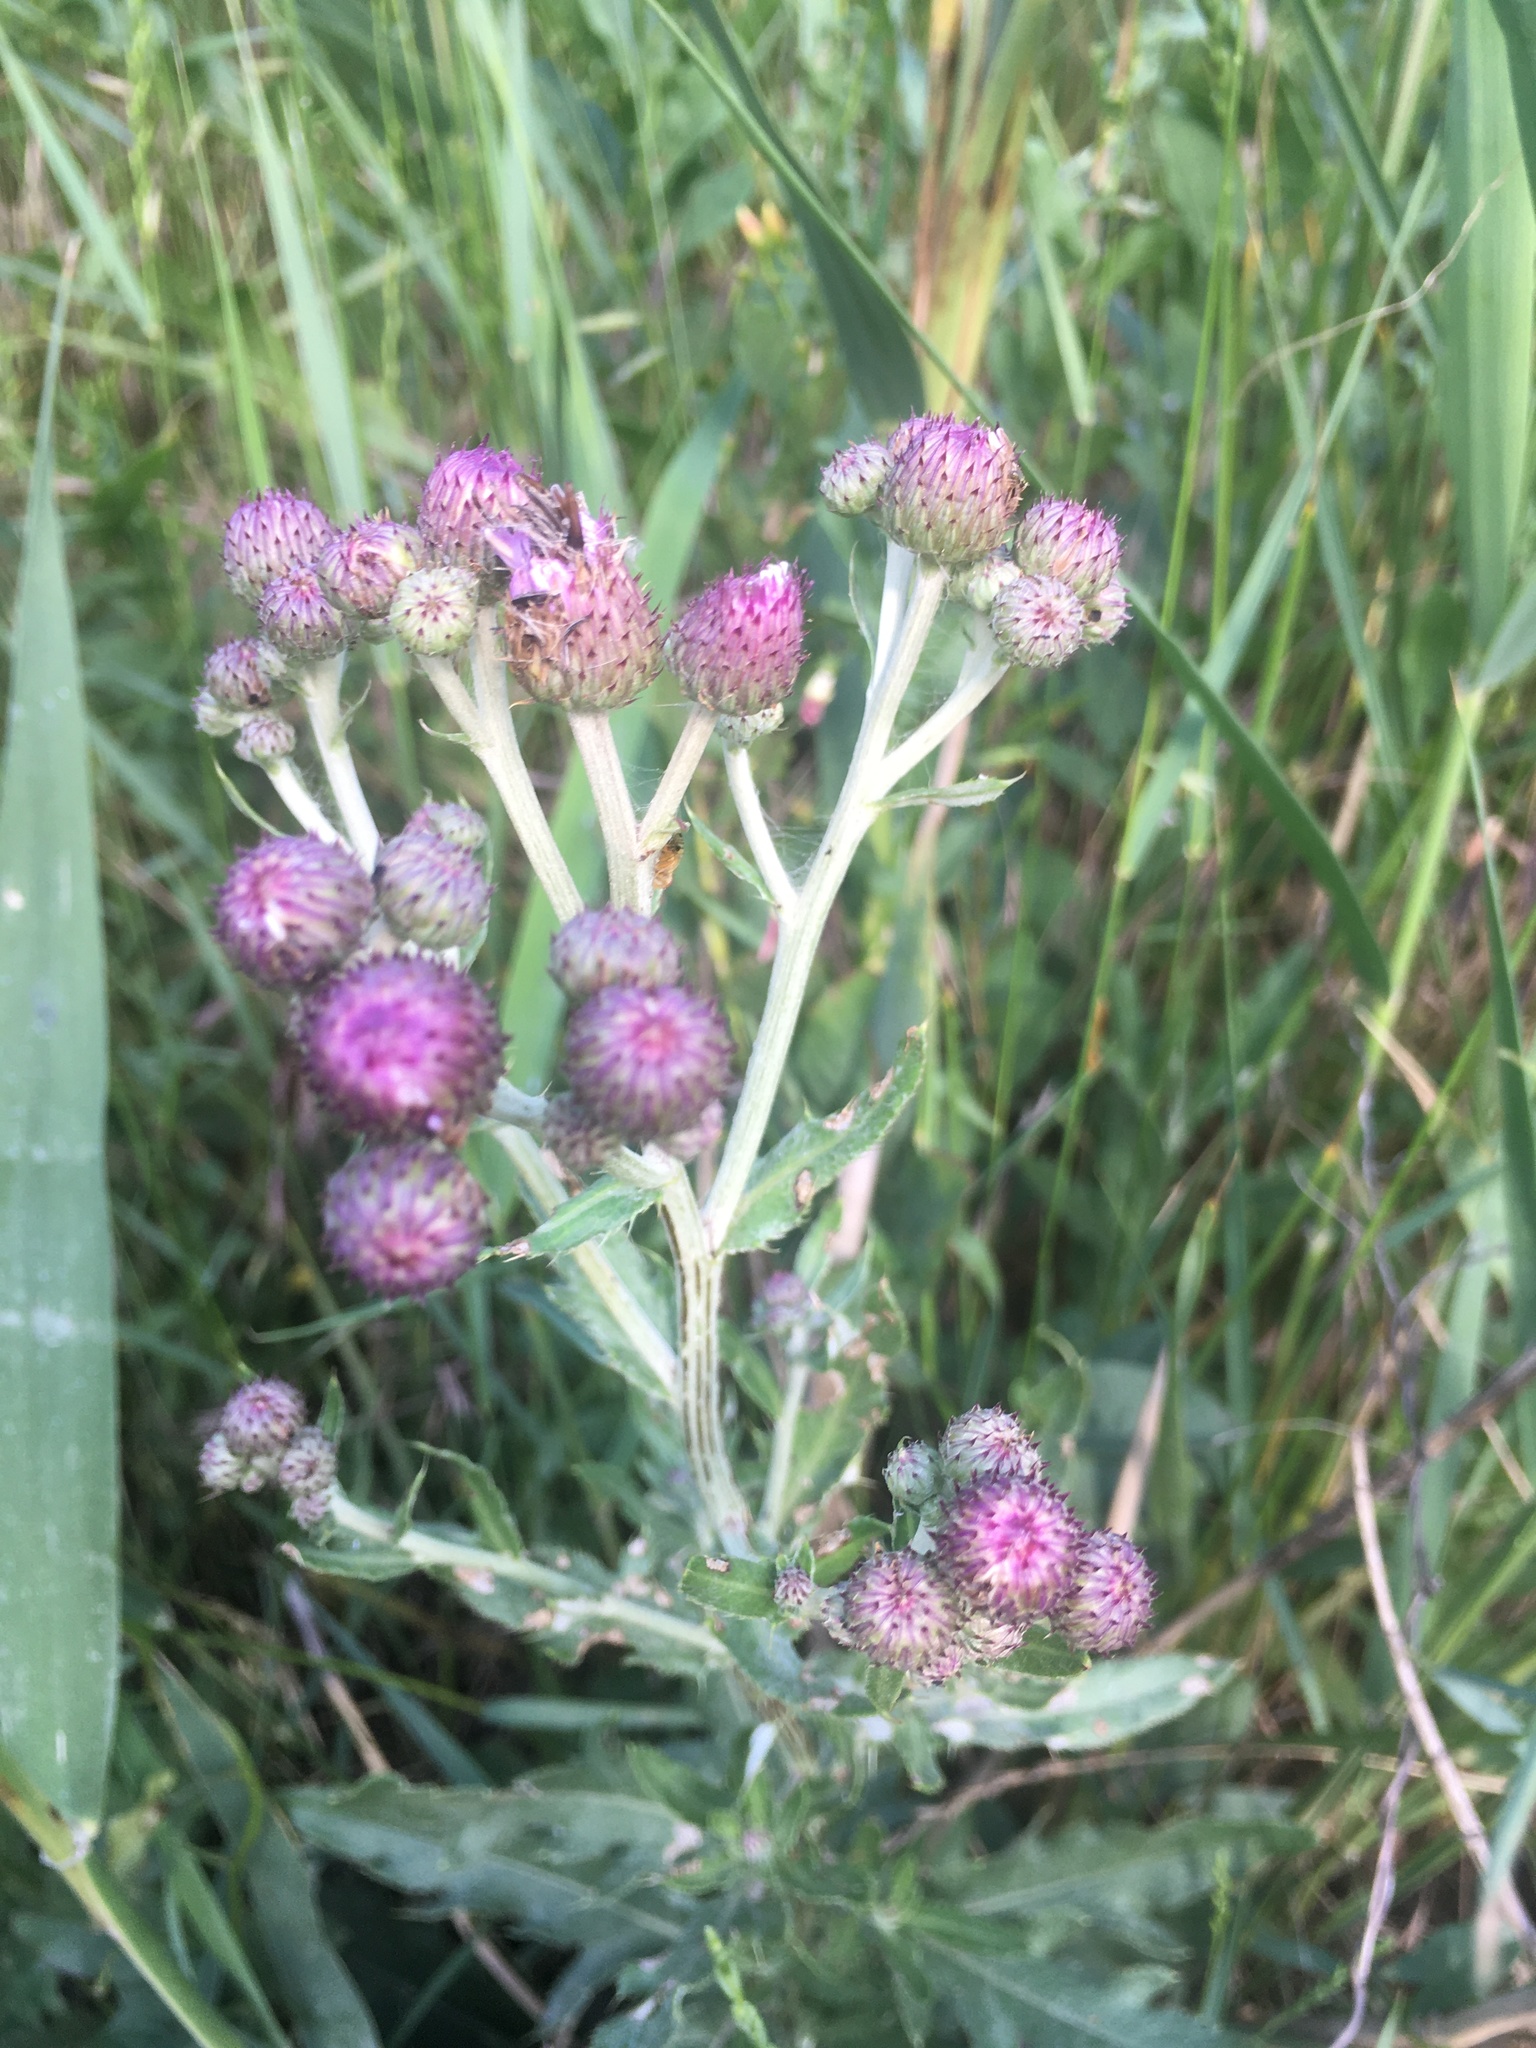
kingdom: Plantae
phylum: Tracheophyta
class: Magnoliopsida
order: Asterales
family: Asteraceae
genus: Cirsium
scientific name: Cirsium arvense
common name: Creeping thistle
